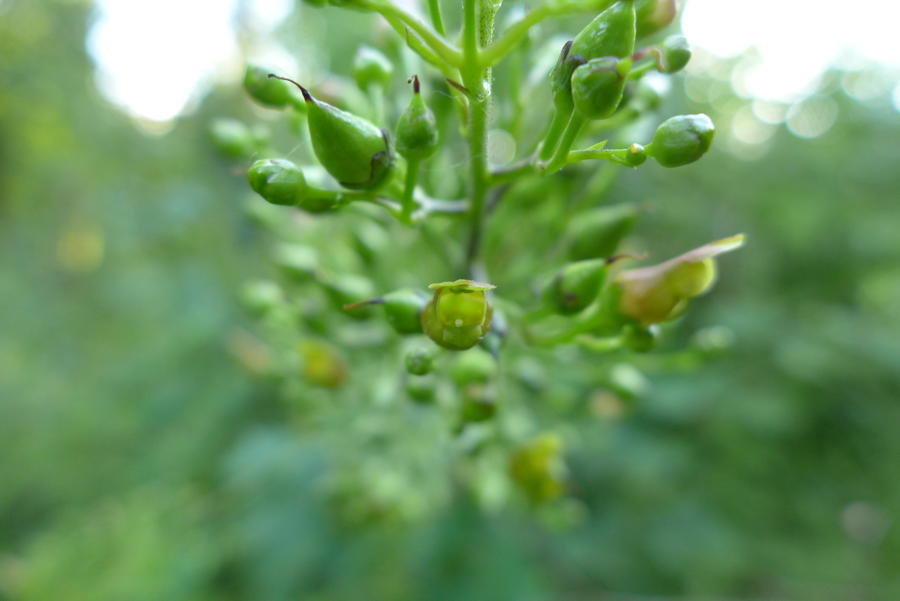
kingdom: Plantae
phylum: Tracheophyta
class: Magnoliopsida
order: Lamiales
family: Scrophulariaceae
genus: Scrophularia
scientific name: Scrophularia lanceolata
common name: American figwort
